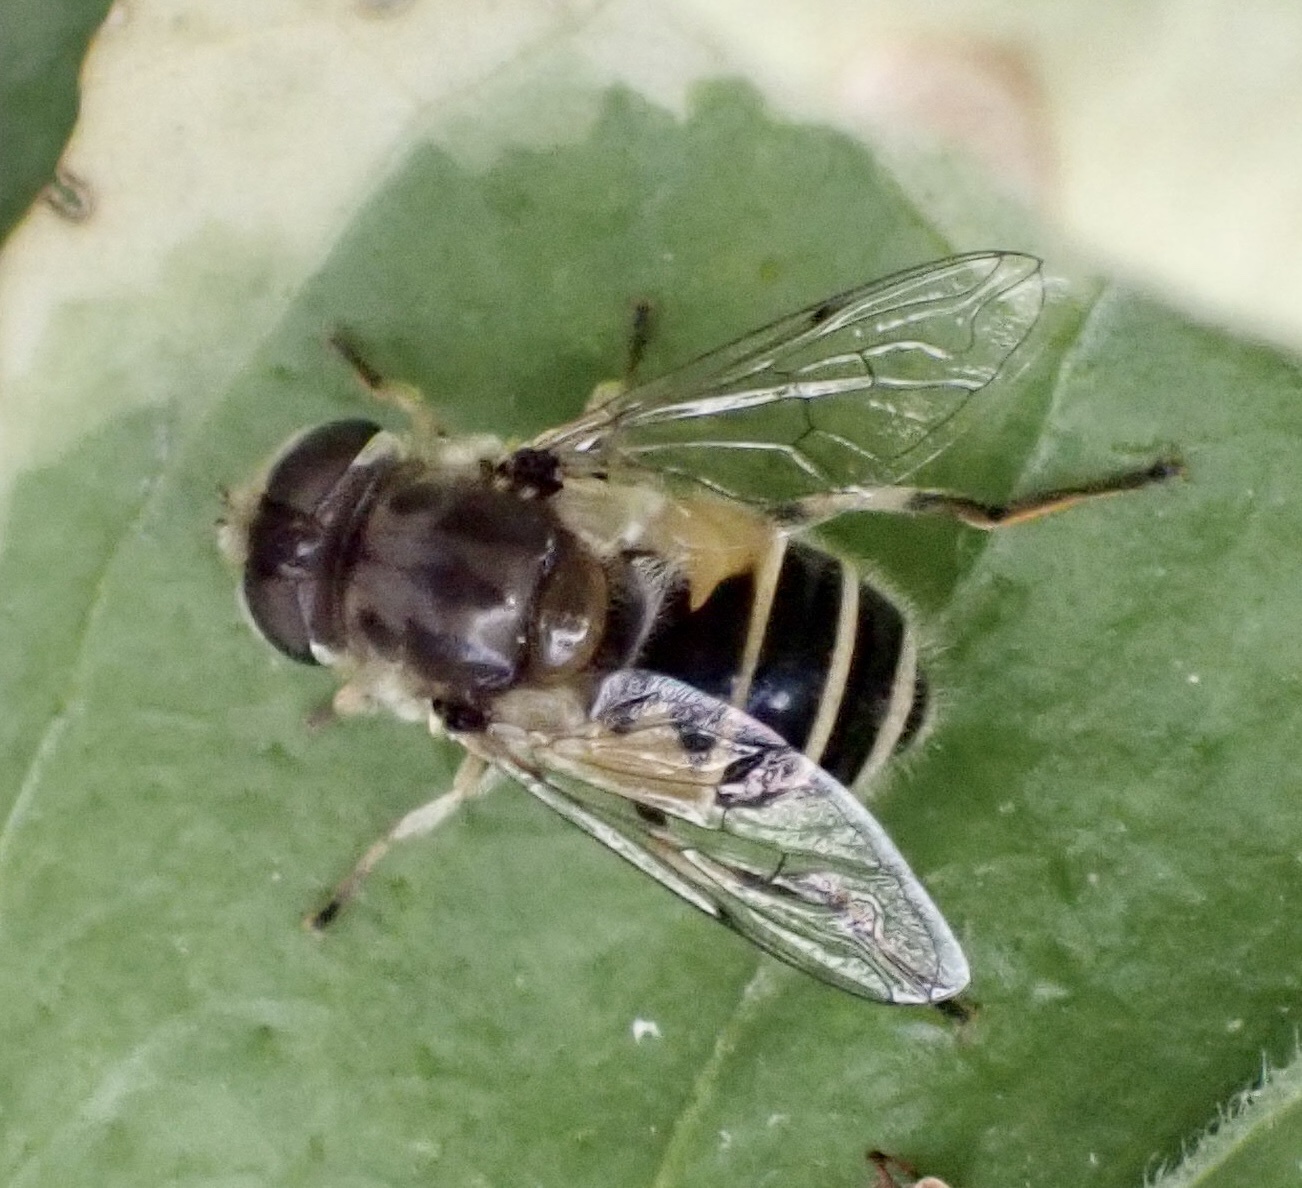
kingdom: Animalia
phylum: Arthropoda
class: Insecta
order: Diptera
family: Syrphidae
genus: Eristalis
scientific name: Eristalis arbustorum
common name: Hover fly
